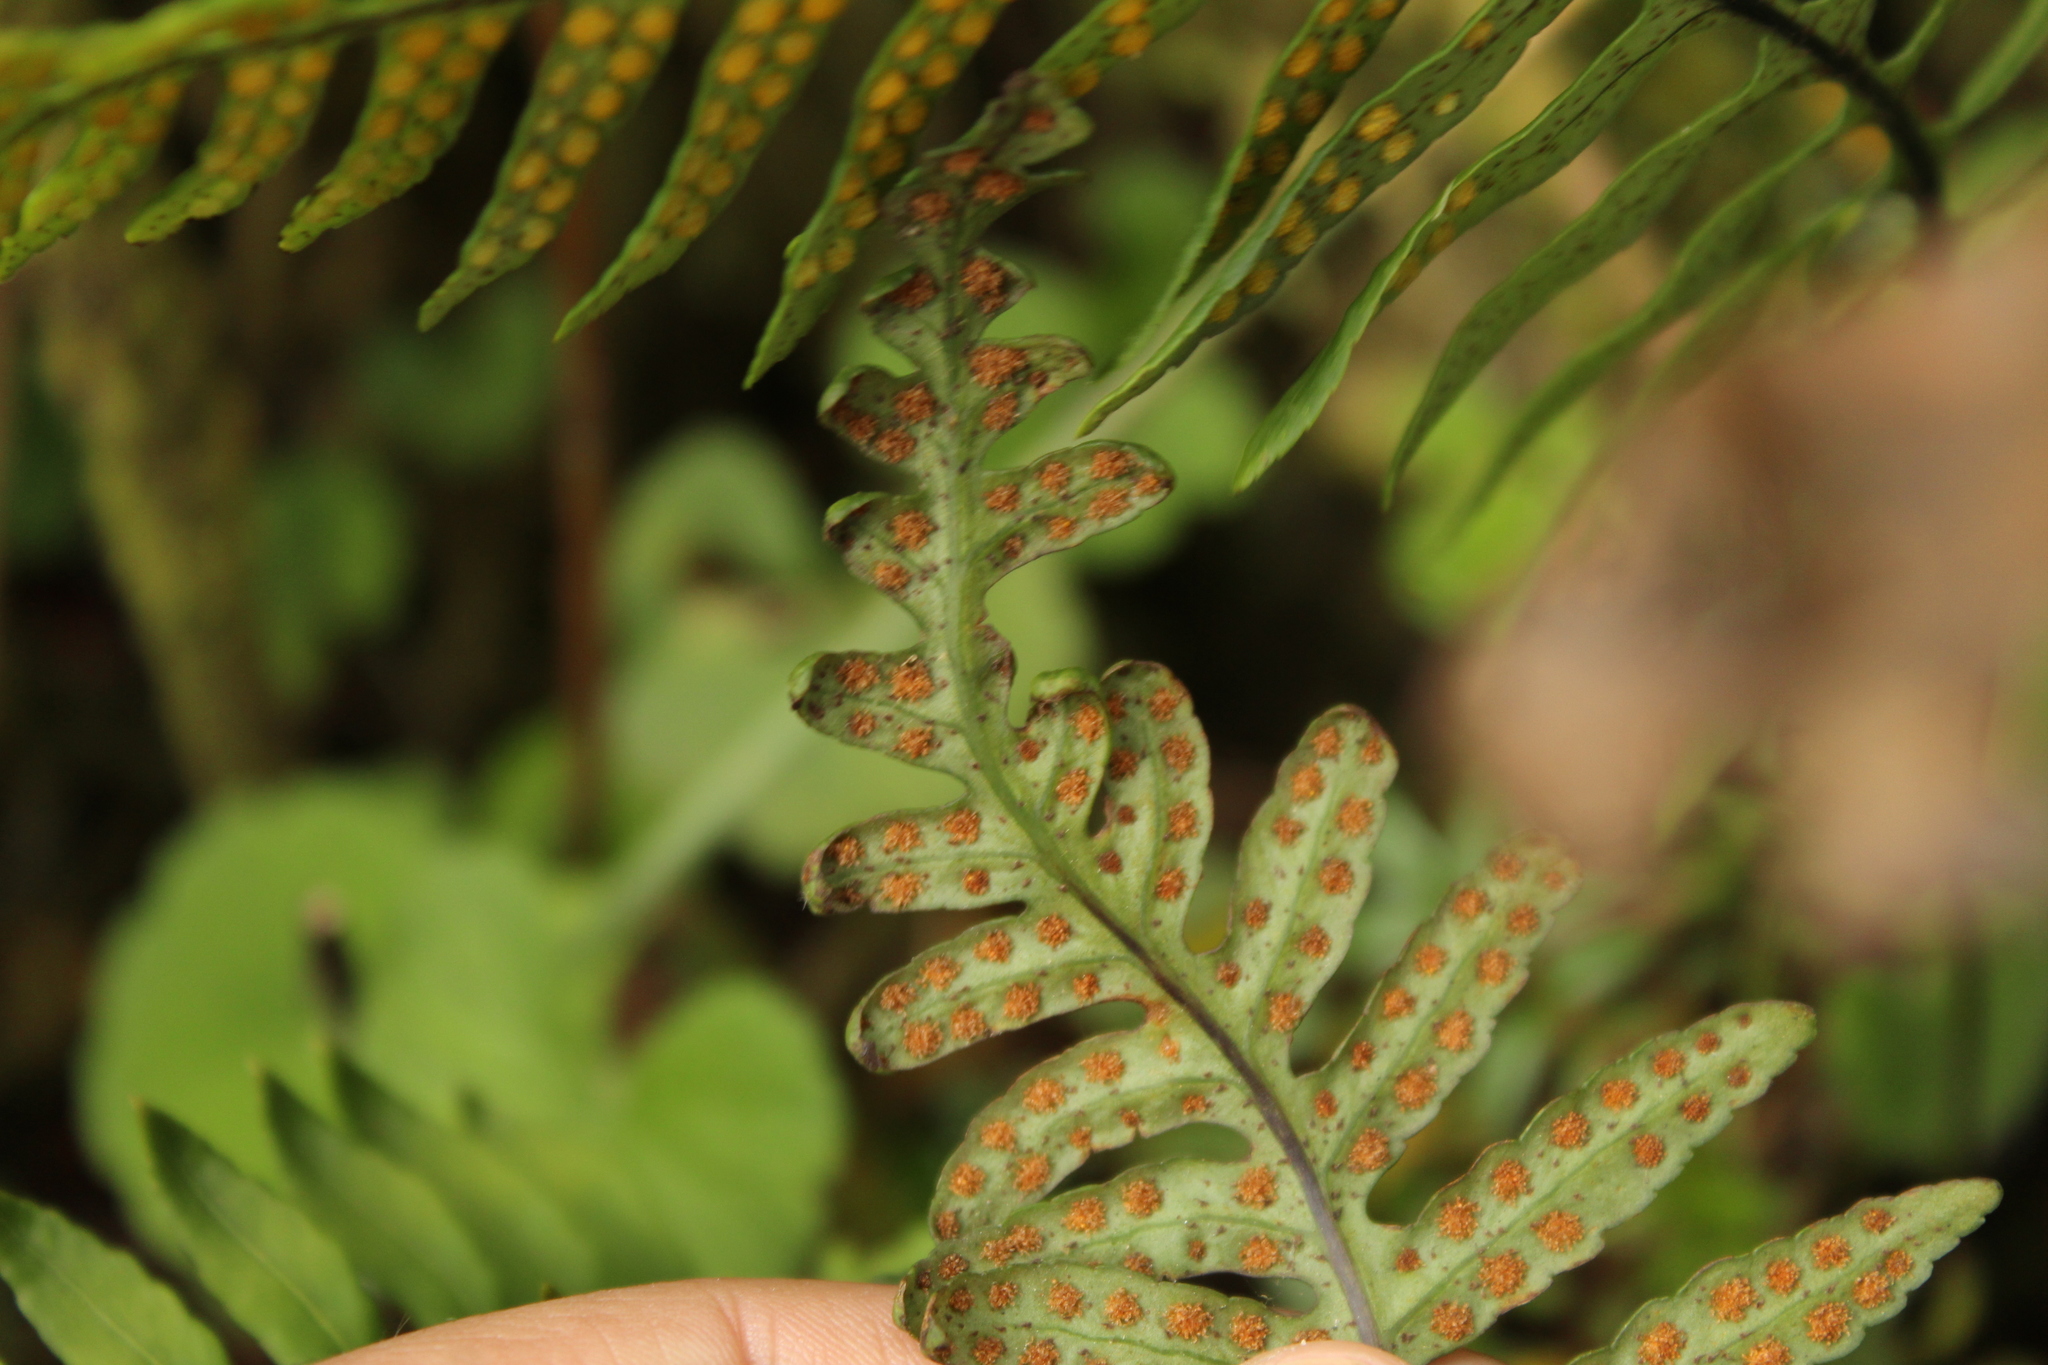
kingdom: Plantae
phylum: Tracheophyta
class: Polypodiopsida
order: Polypodiales
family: Polypodiaceae
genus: Pleopeltis
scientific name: Pleopeltis murora
